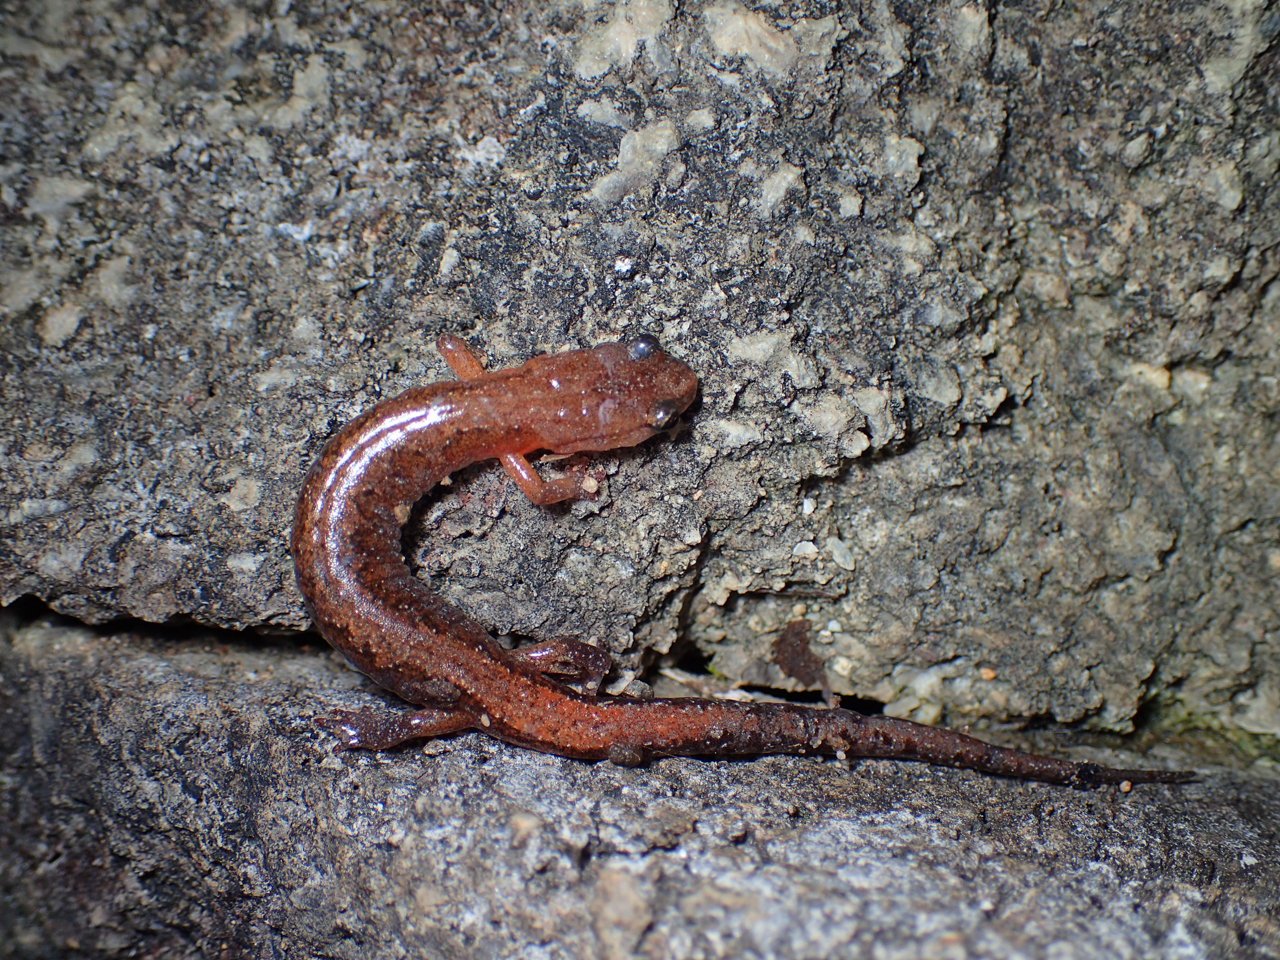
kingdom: Animalia
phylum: Chordata
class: Amphibia
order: Caudata
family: Plethodontidae
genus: Plethodon
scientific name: Plethodon websteri
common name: Webster's salamander
